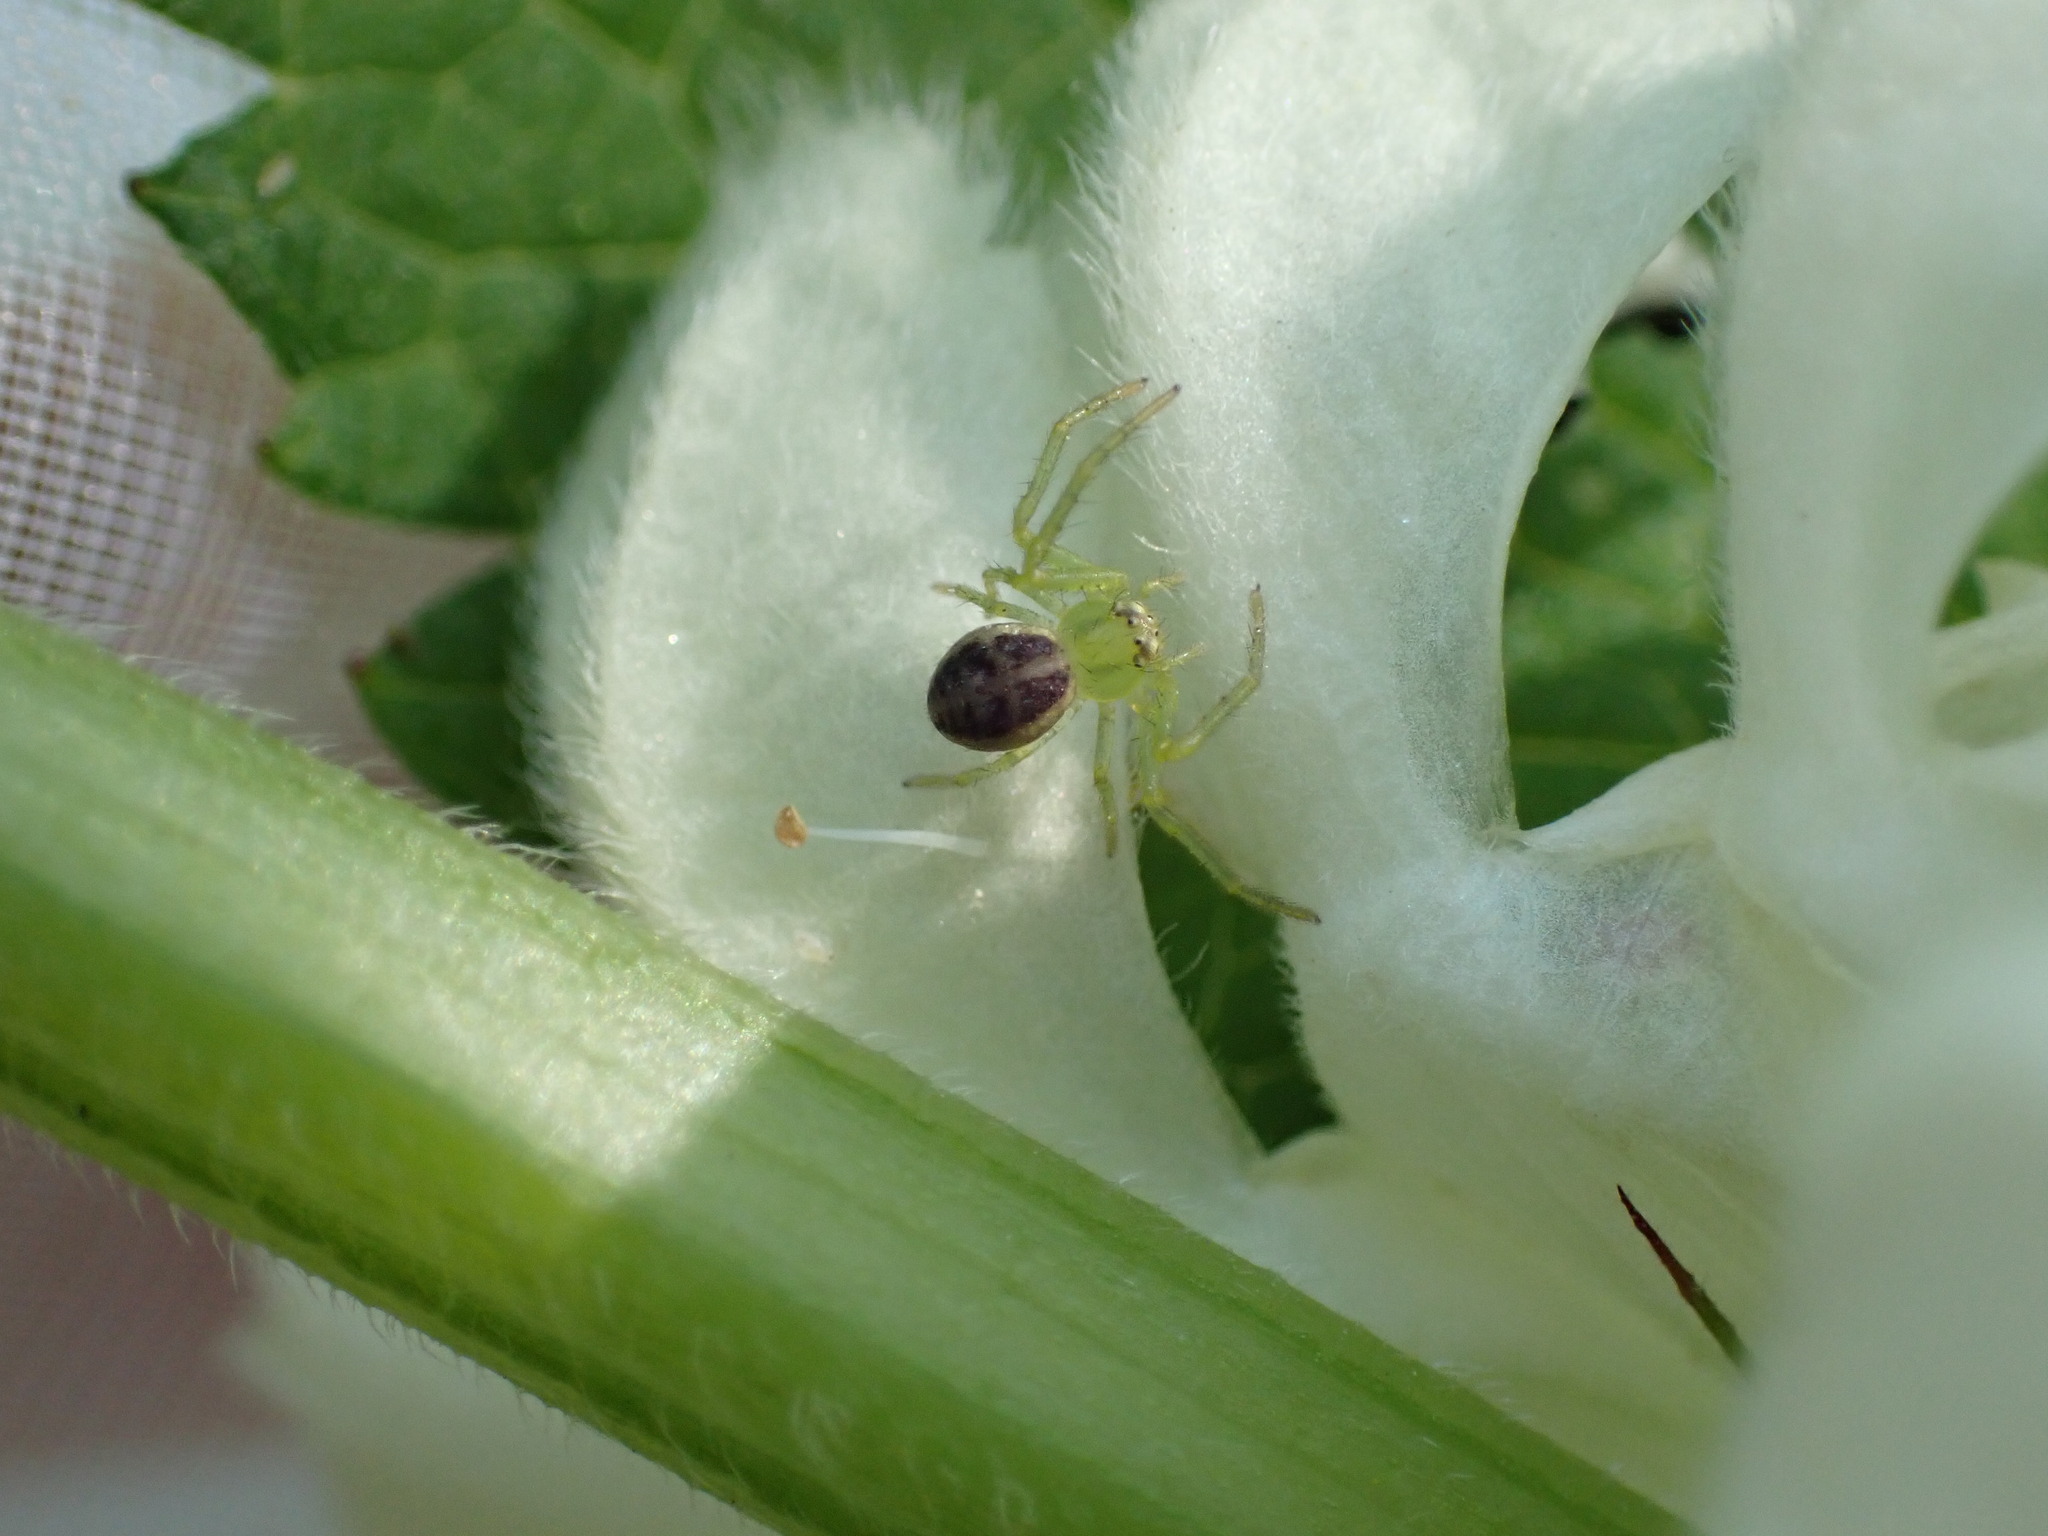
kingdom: Animalia
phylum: Arthropoda
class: Arachnida
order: Araneae
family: Thomisidae
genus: Diaea
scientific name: Diaea dorsata
